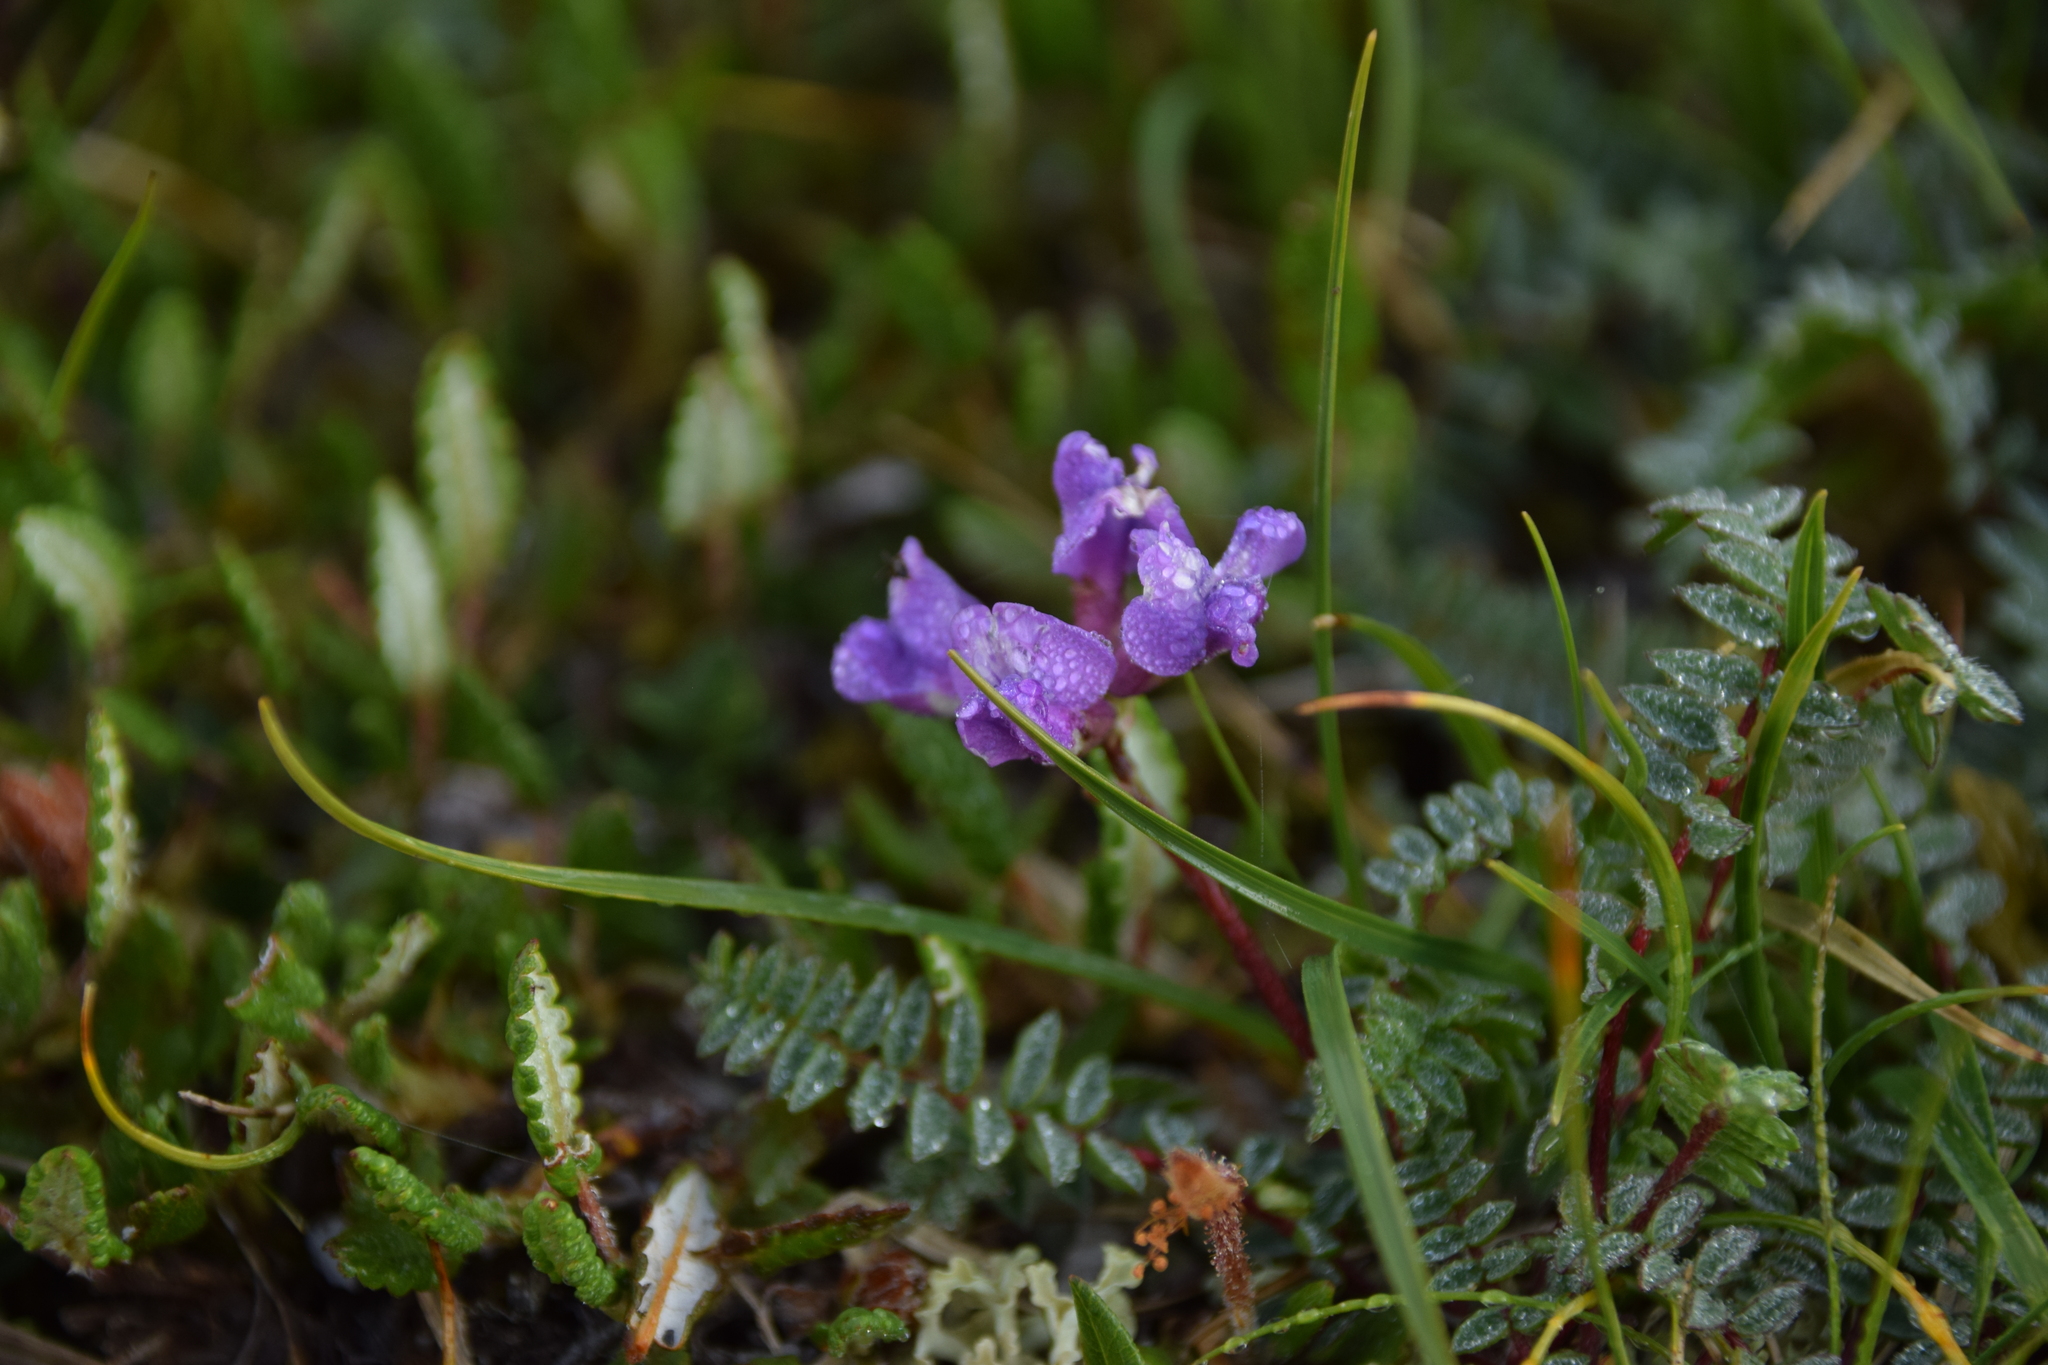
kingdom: Plantae
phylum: Tracheophyta
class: Magnoliopsida
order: Fabales
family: Fabaceae
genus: Oxytropis
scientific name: Oxytropis montana
